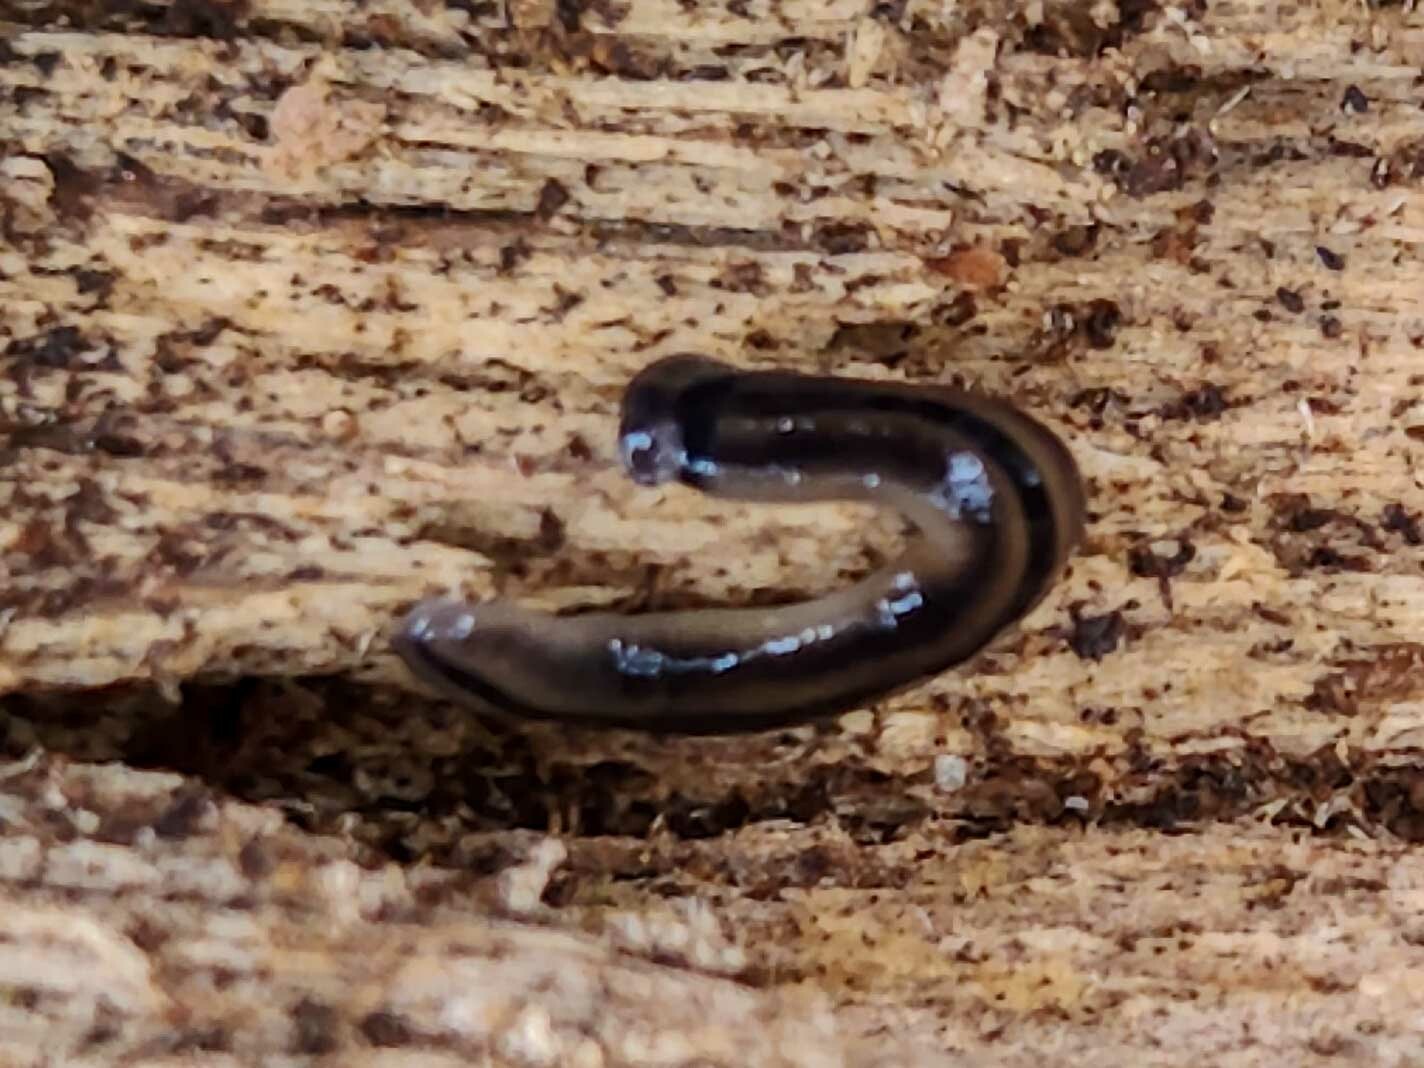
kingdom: Animalia
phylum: Platyhelminthes
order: Tricladida
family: Geoplanidae
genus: Bipalium
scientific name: Bipalium vagum
